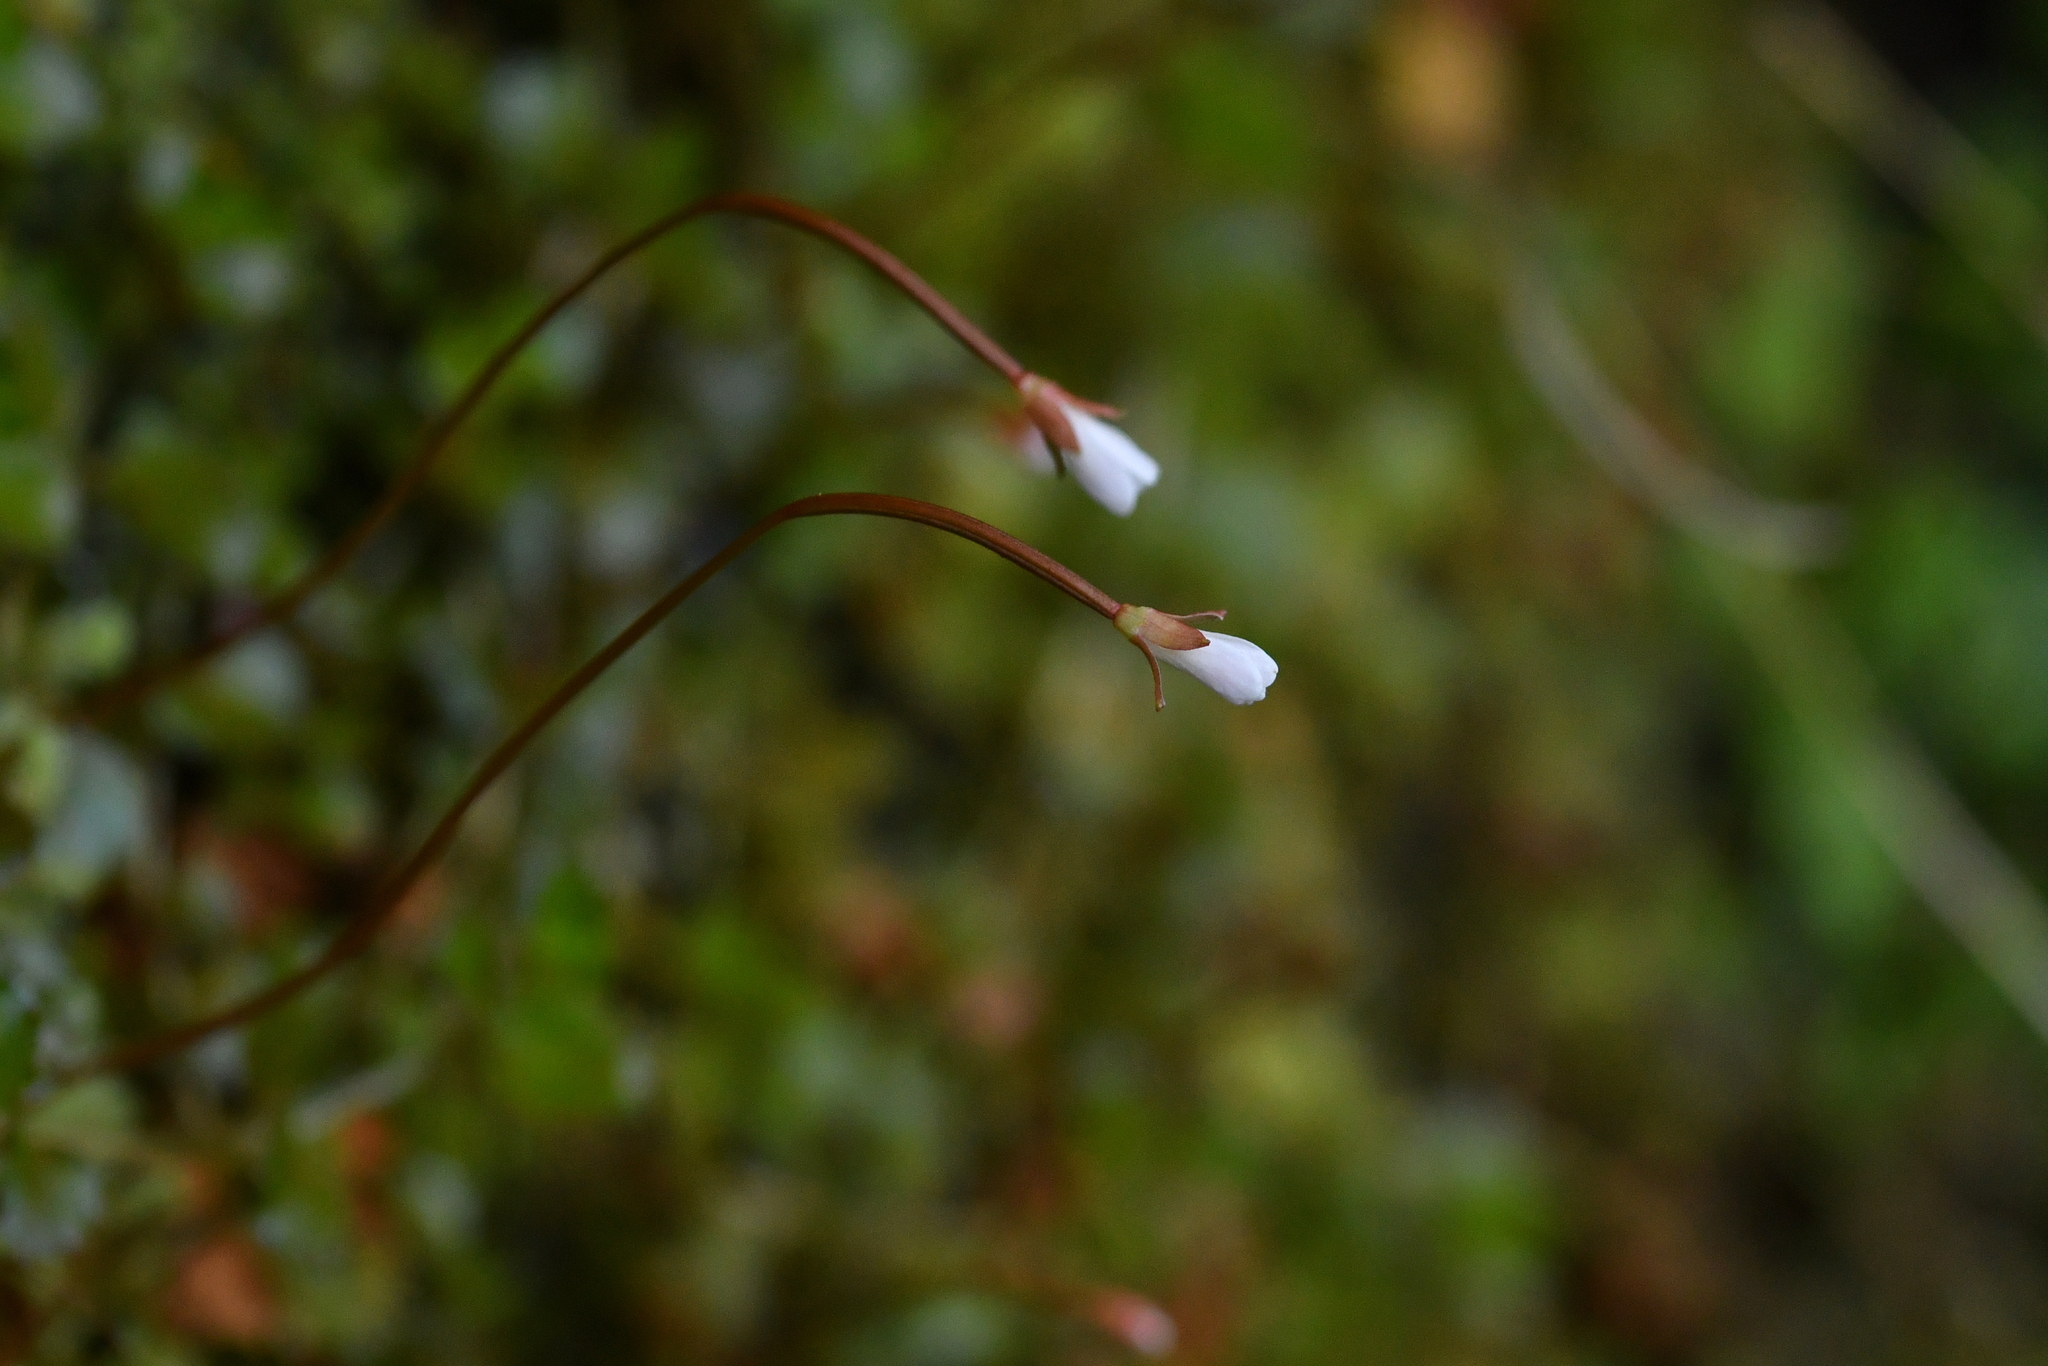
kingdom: Plantae
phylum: Tracheophyta
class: Magnoliopsida
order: Myrtales
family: Onagraceae
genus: Epilobium
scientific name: Epilobium pedunculare
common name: Rockery willowherb
